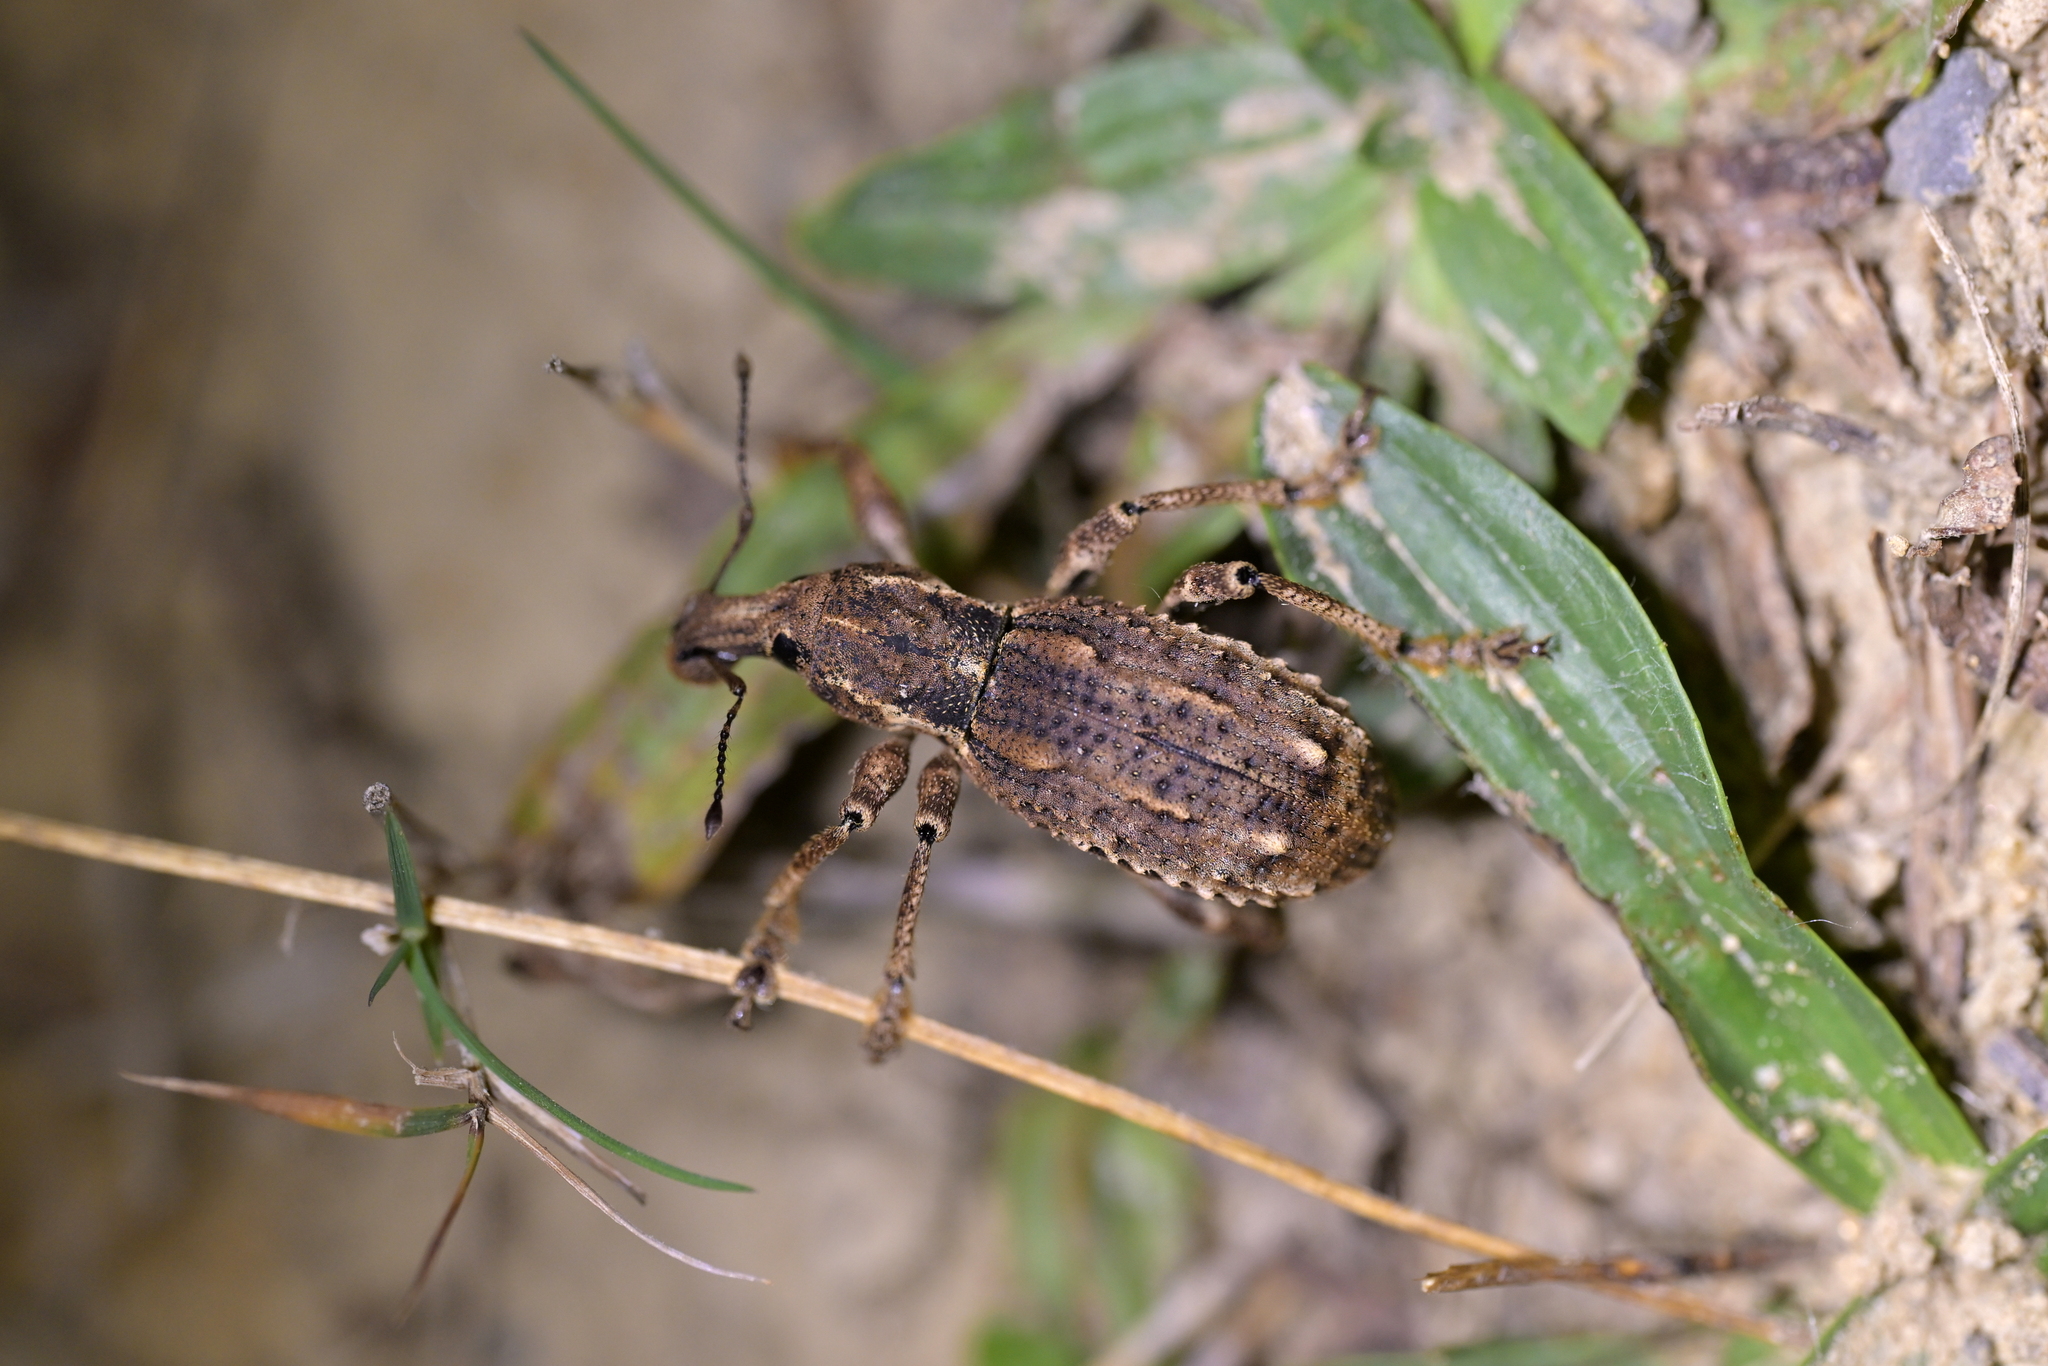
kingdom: Animalia
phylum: Arthropoda
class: Insecta
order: Coleoptera
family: Curculionidae
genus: Anagotus
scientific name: Anagotus fairburni
